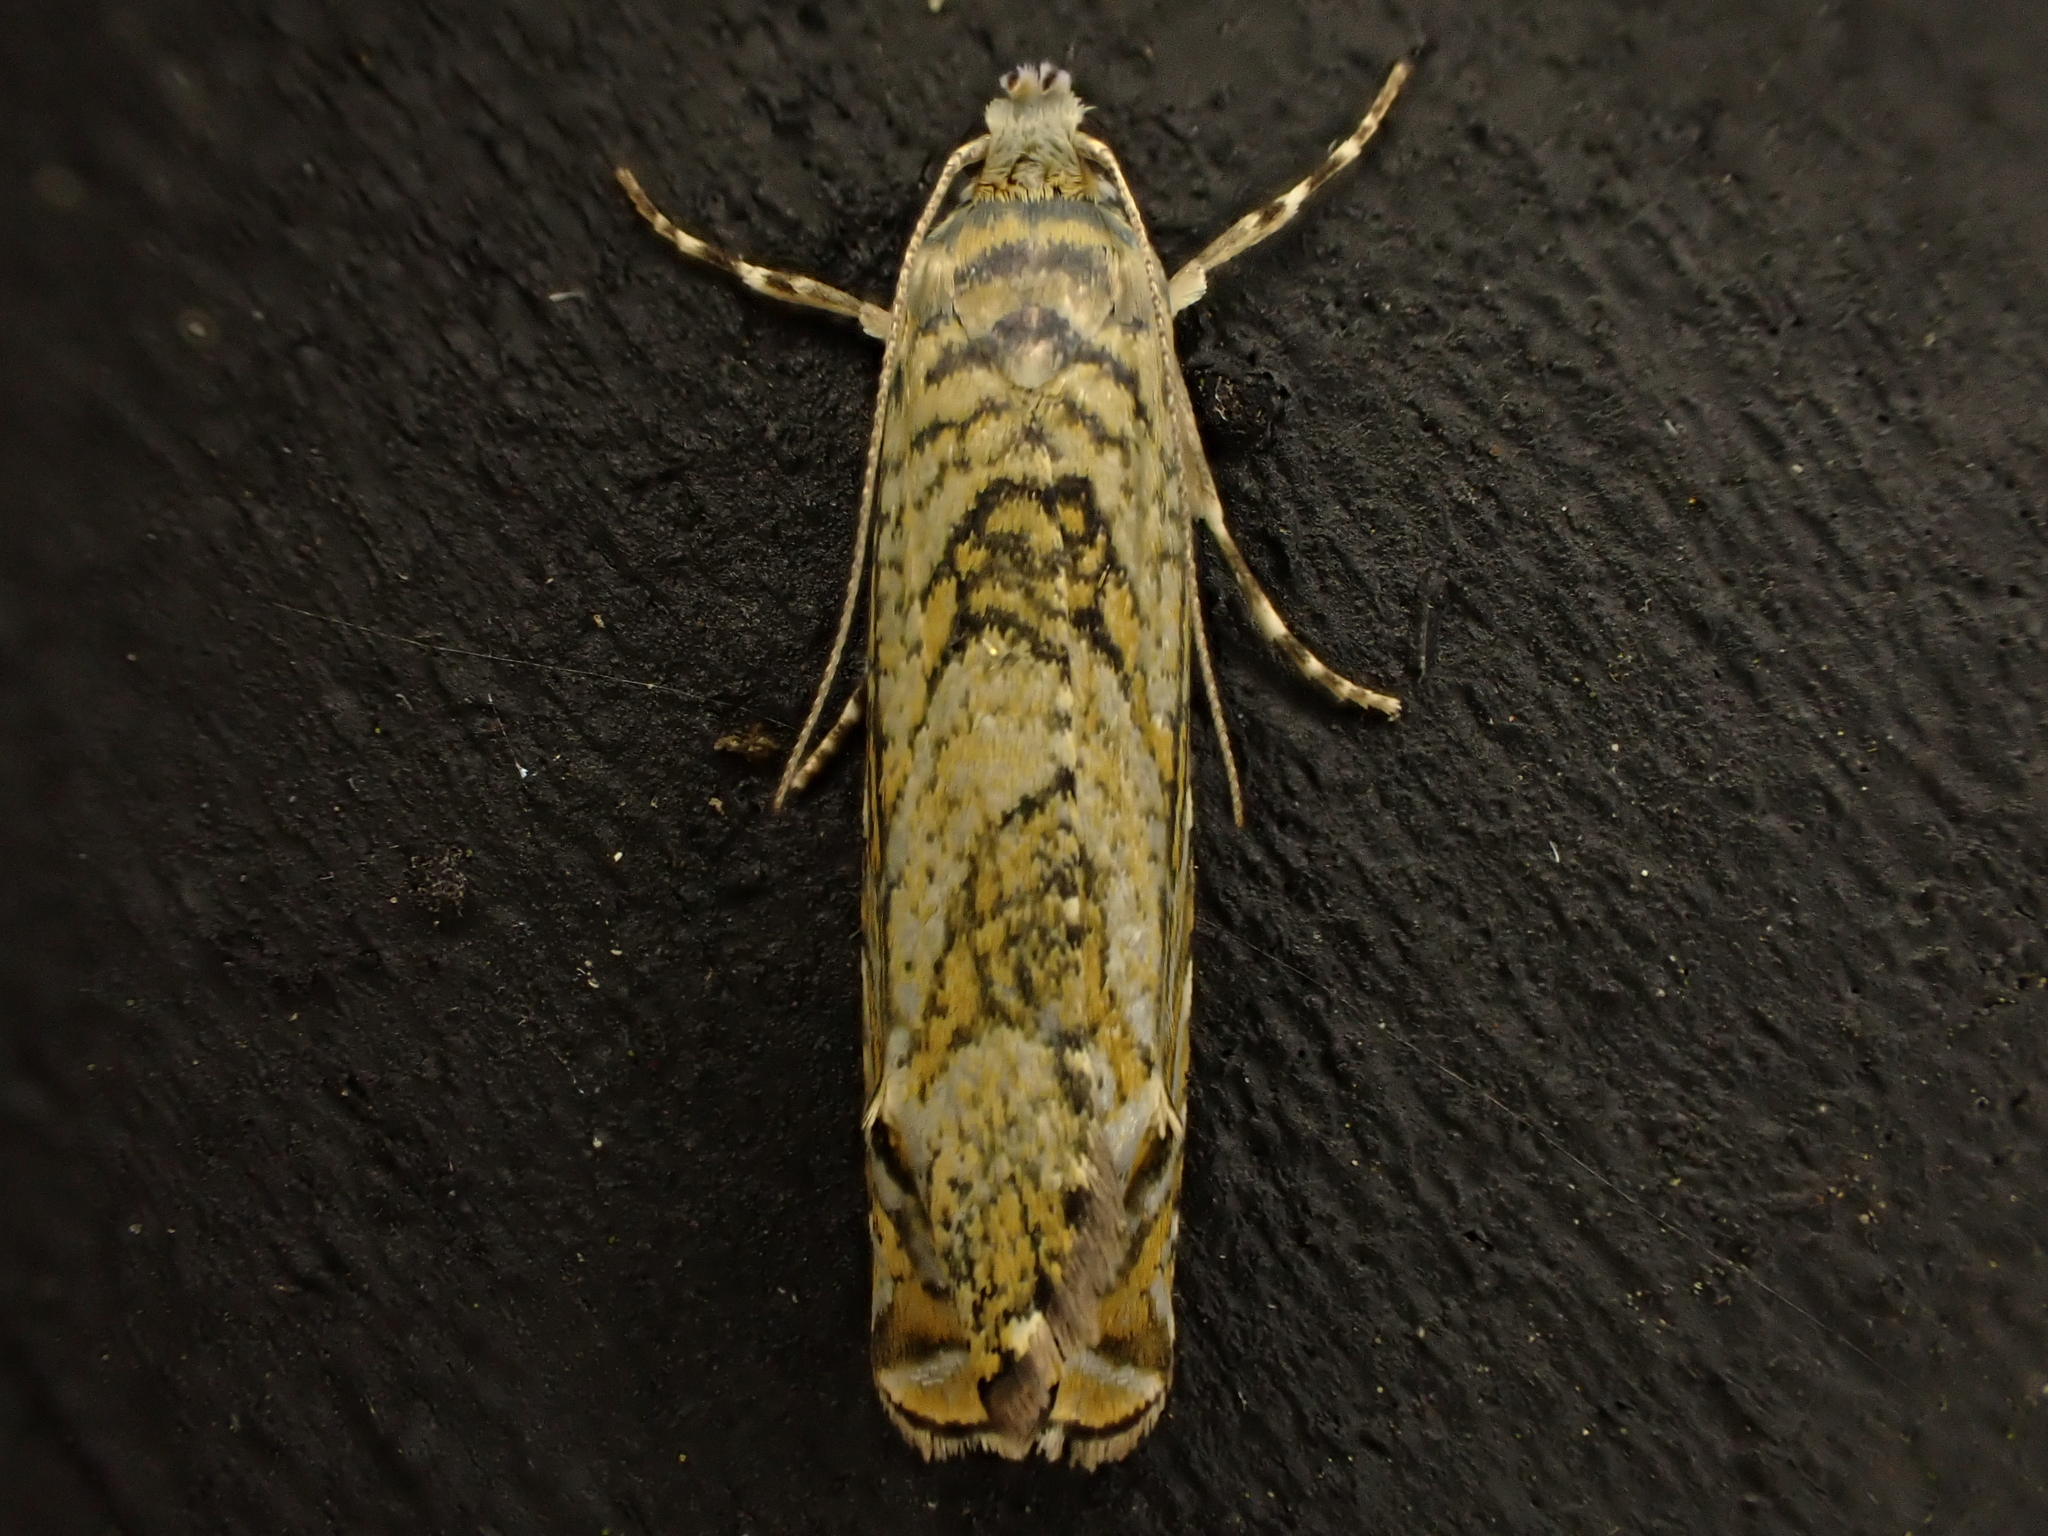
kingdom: Animalia
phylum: Arthropoda
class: Insecta
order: Lepidoptera
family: Plutellidae
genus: Doxophyrtis
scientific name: Doxophyrtis hydrocosma
